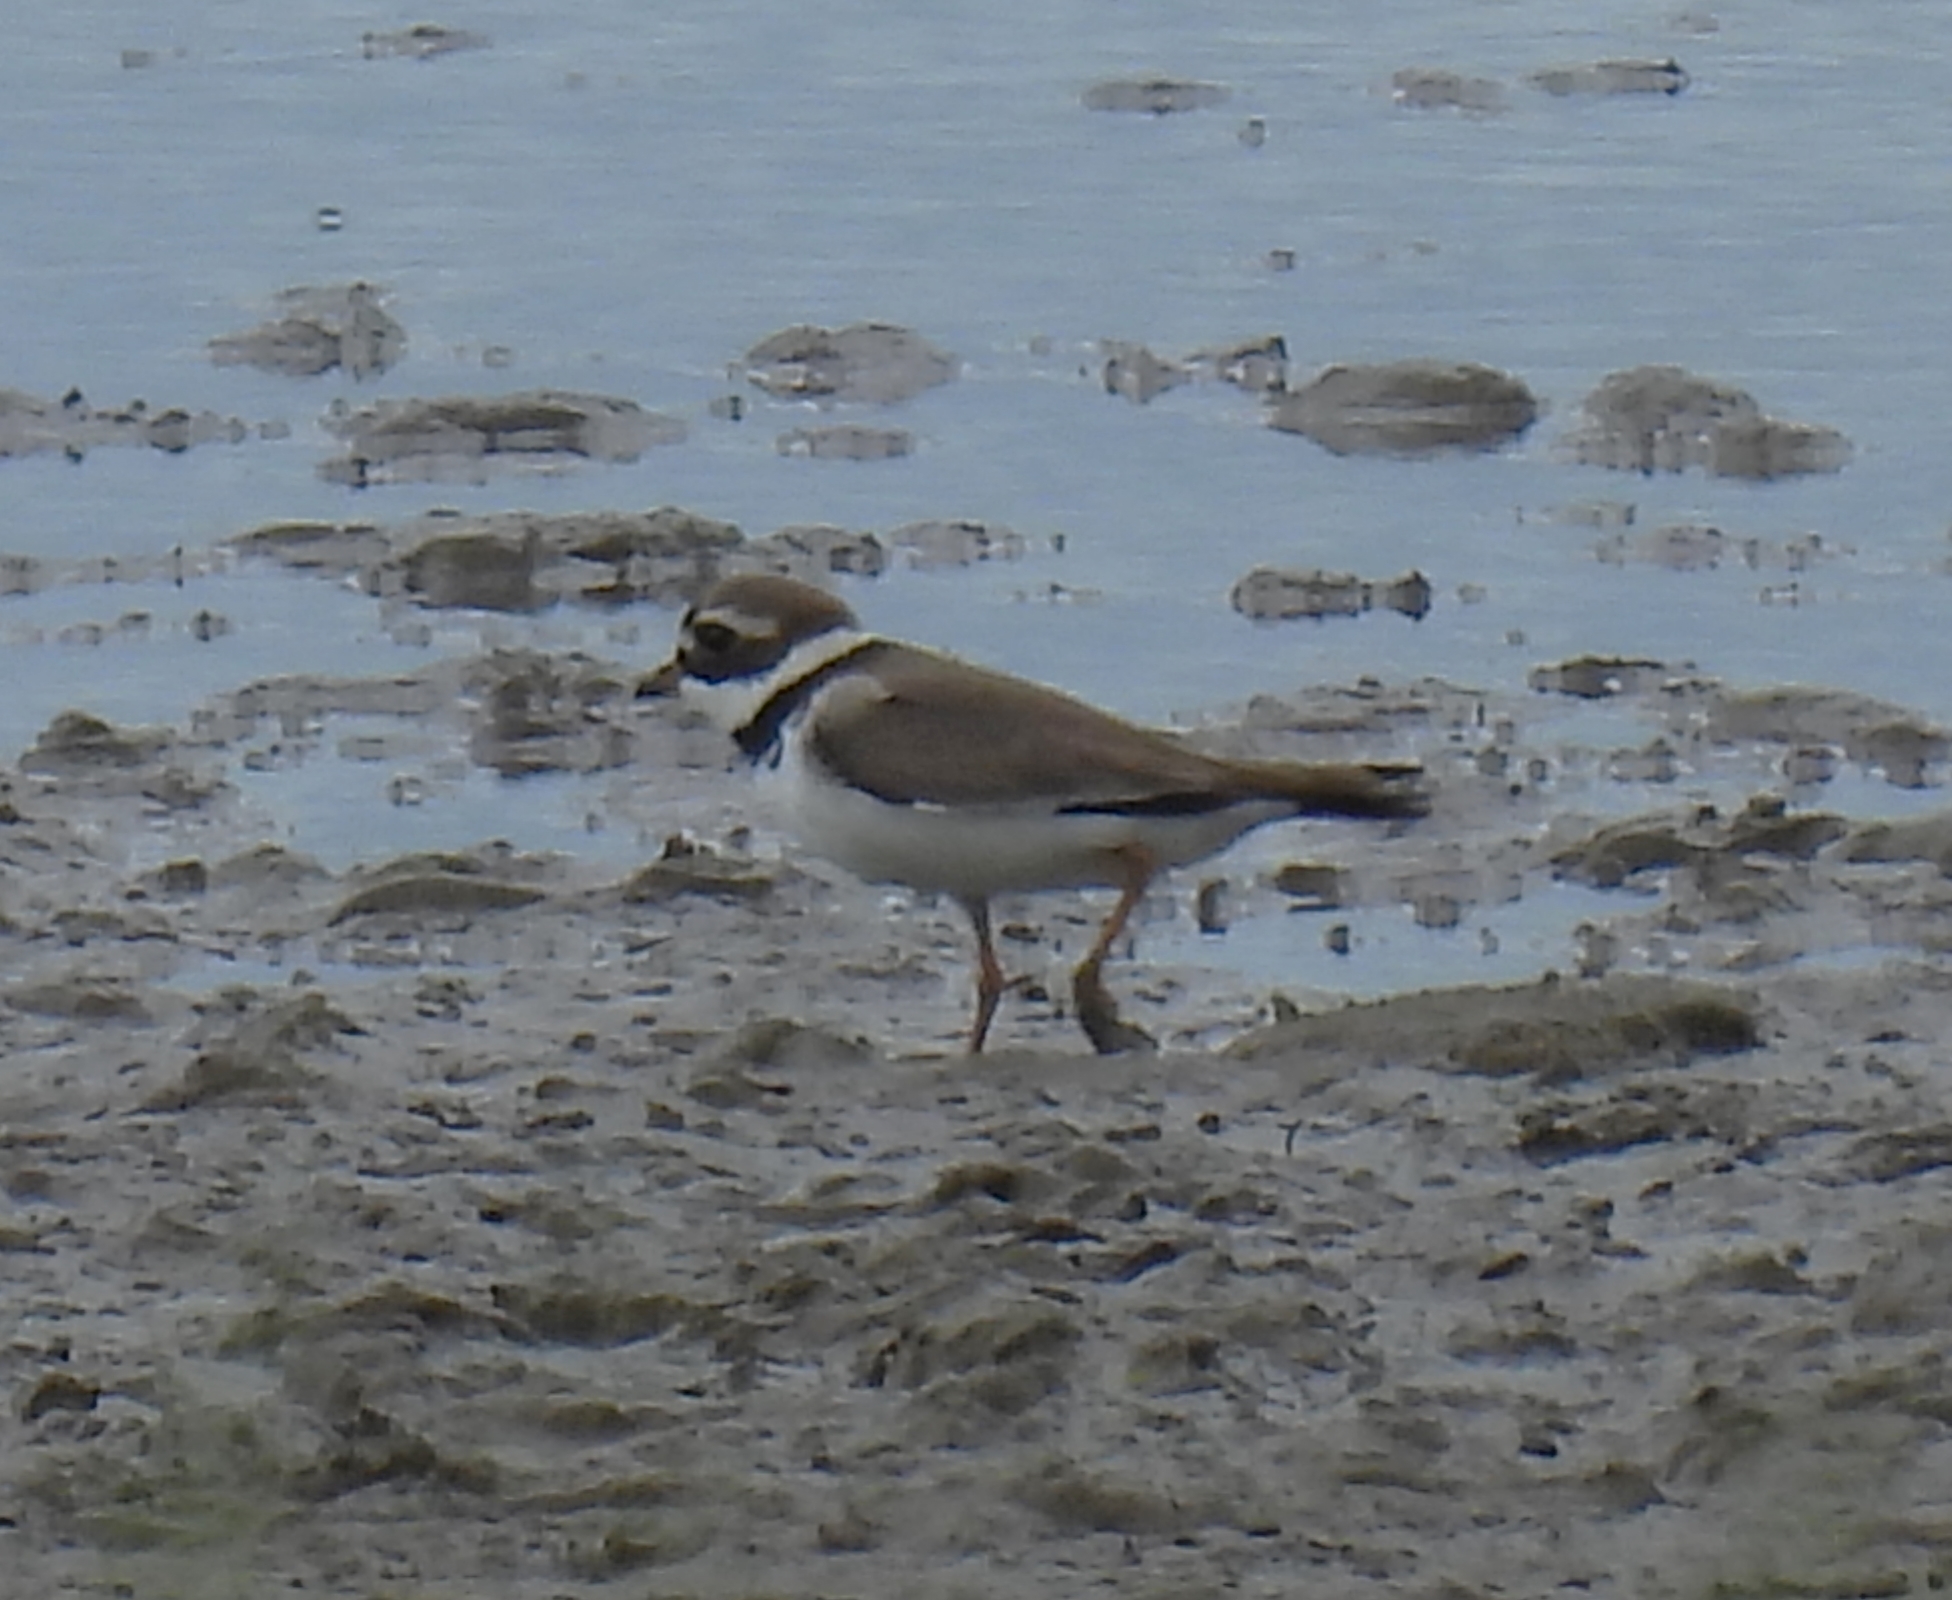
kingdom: Animalia
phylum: Chordata
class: Aves
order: Charadriiformes
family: Charadriidae
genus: Charadrius
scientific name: Charadrius hiaticula
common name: Common ringed plover
